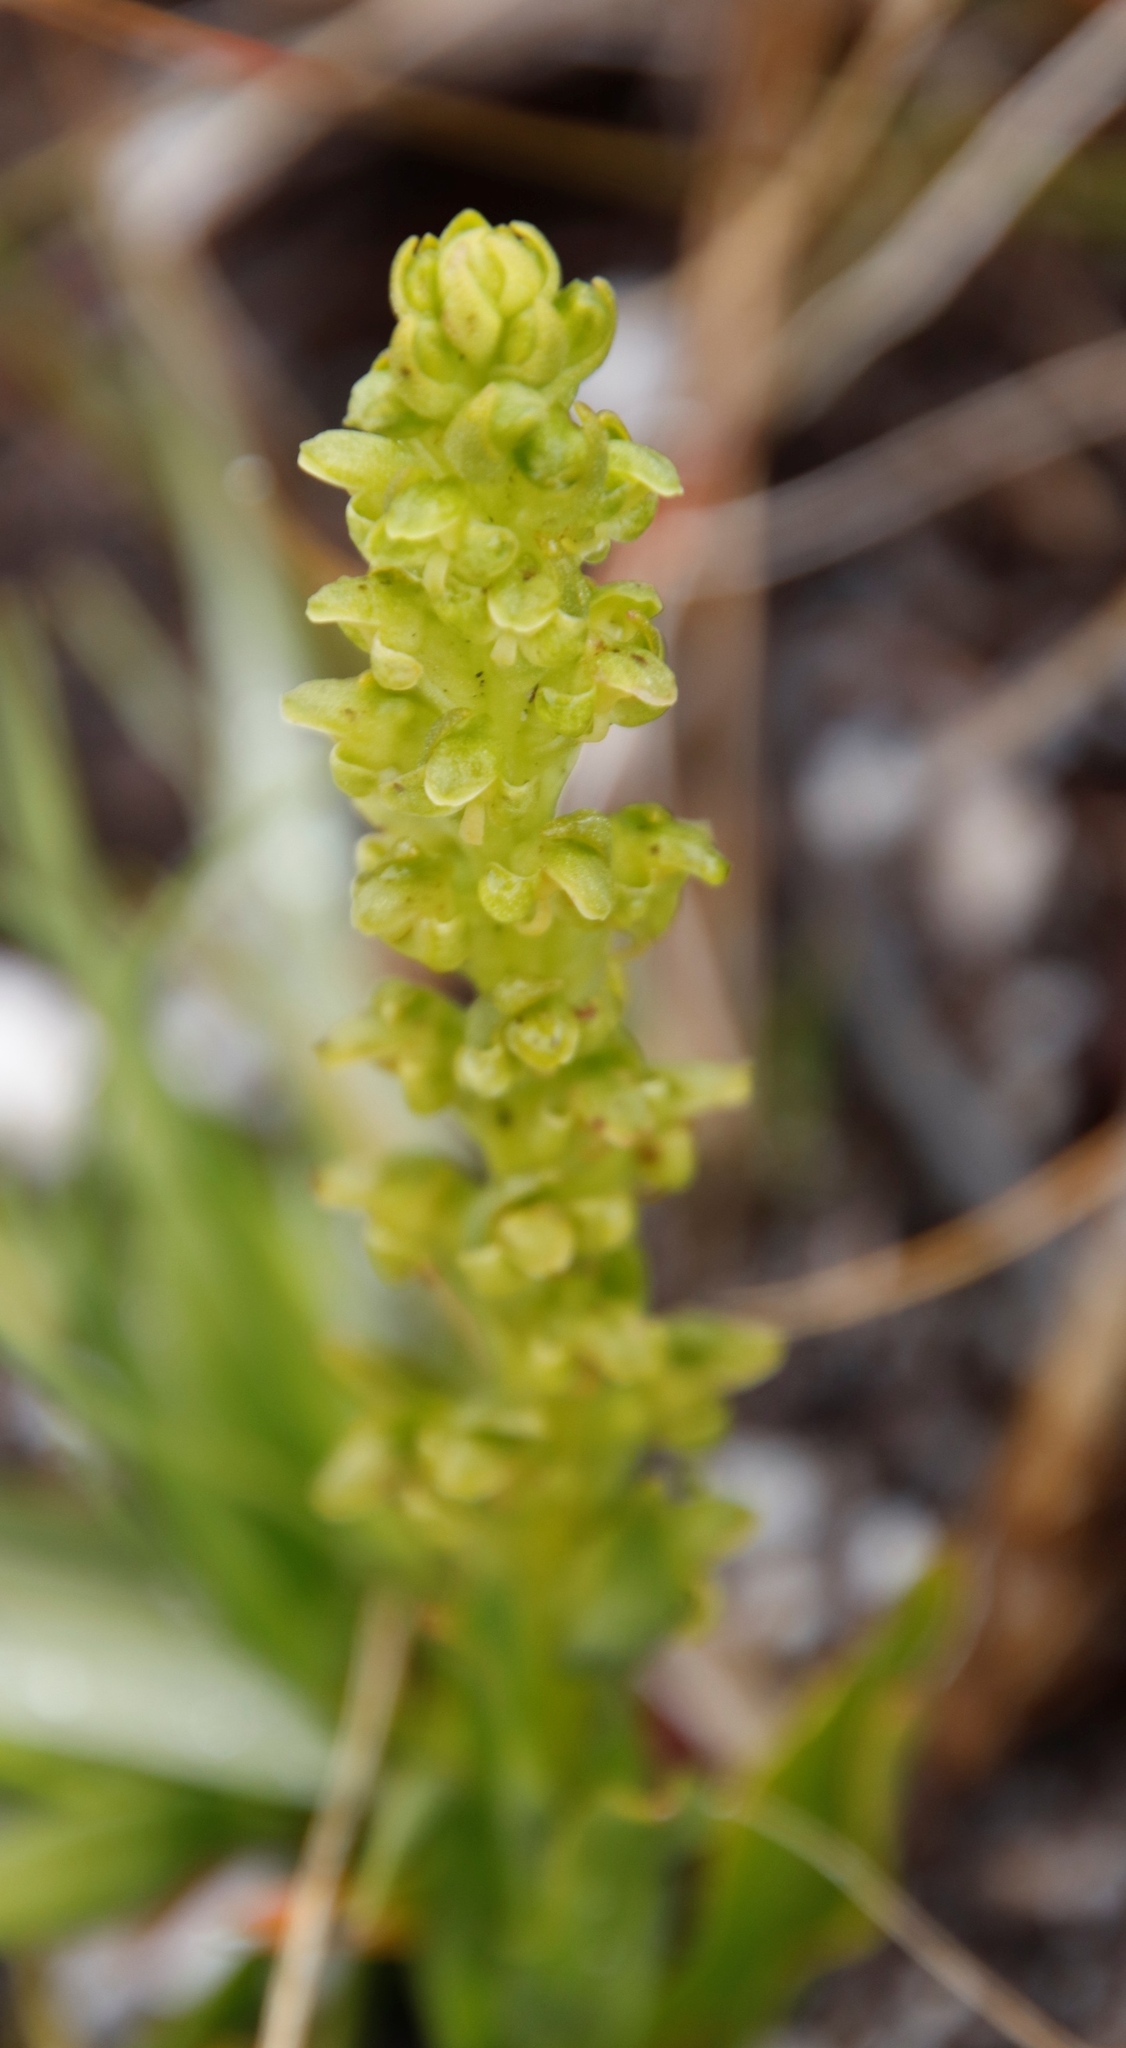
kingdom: Plantae
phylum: Tracheophyta
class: Liliopsida
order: Asparagales
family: Orchidaceae
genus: Disa
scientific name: Disa cylindrica
